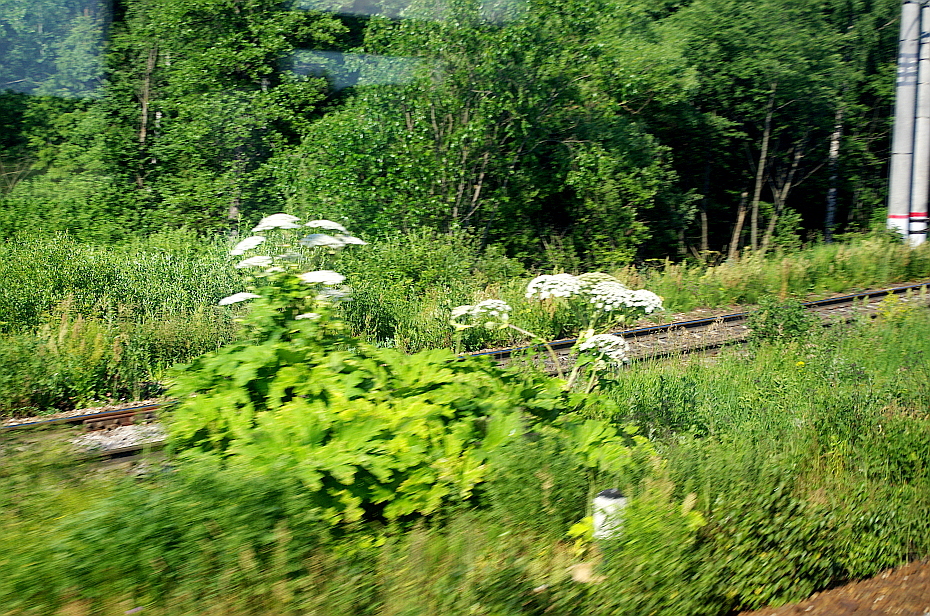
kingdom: Plantae
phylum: Tracheophyta
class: Magnoliopsida
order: Apiales
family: Apiaceae
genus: Heracleum
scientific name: Heracleum sosnowskyi
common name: Sosnowsky's hogweed
